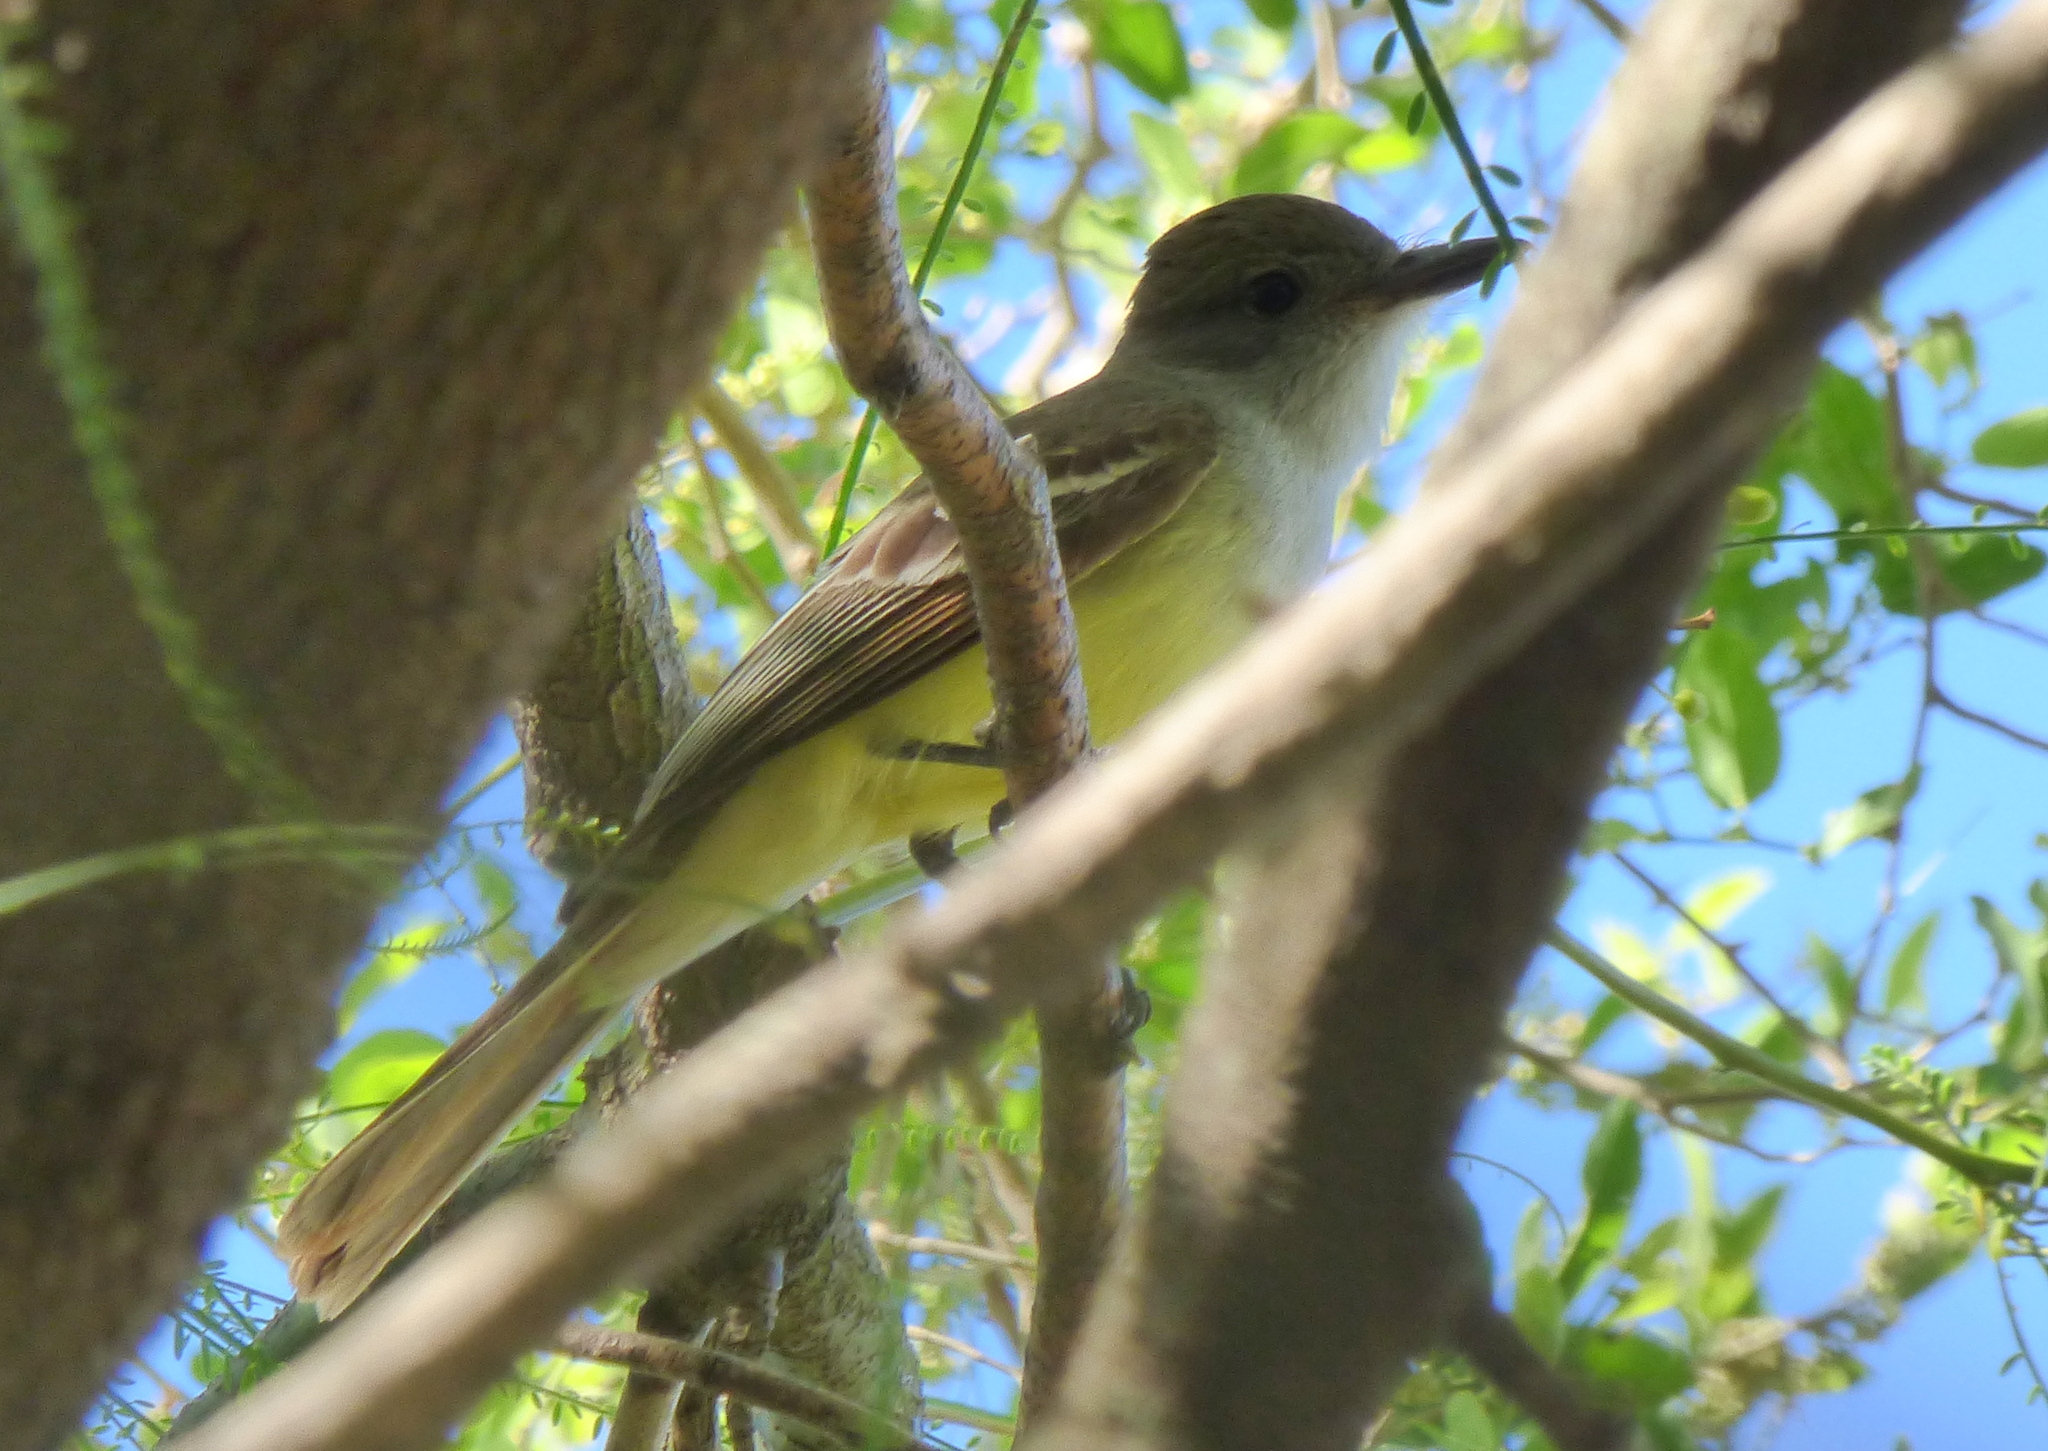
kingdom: Animalia
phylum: Chordata
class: Aves
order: Passeriformes
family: Tyrannidae
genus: Myiarchus
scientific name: Myiarchus tyrannulus
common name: Brown-crested flycatcher
